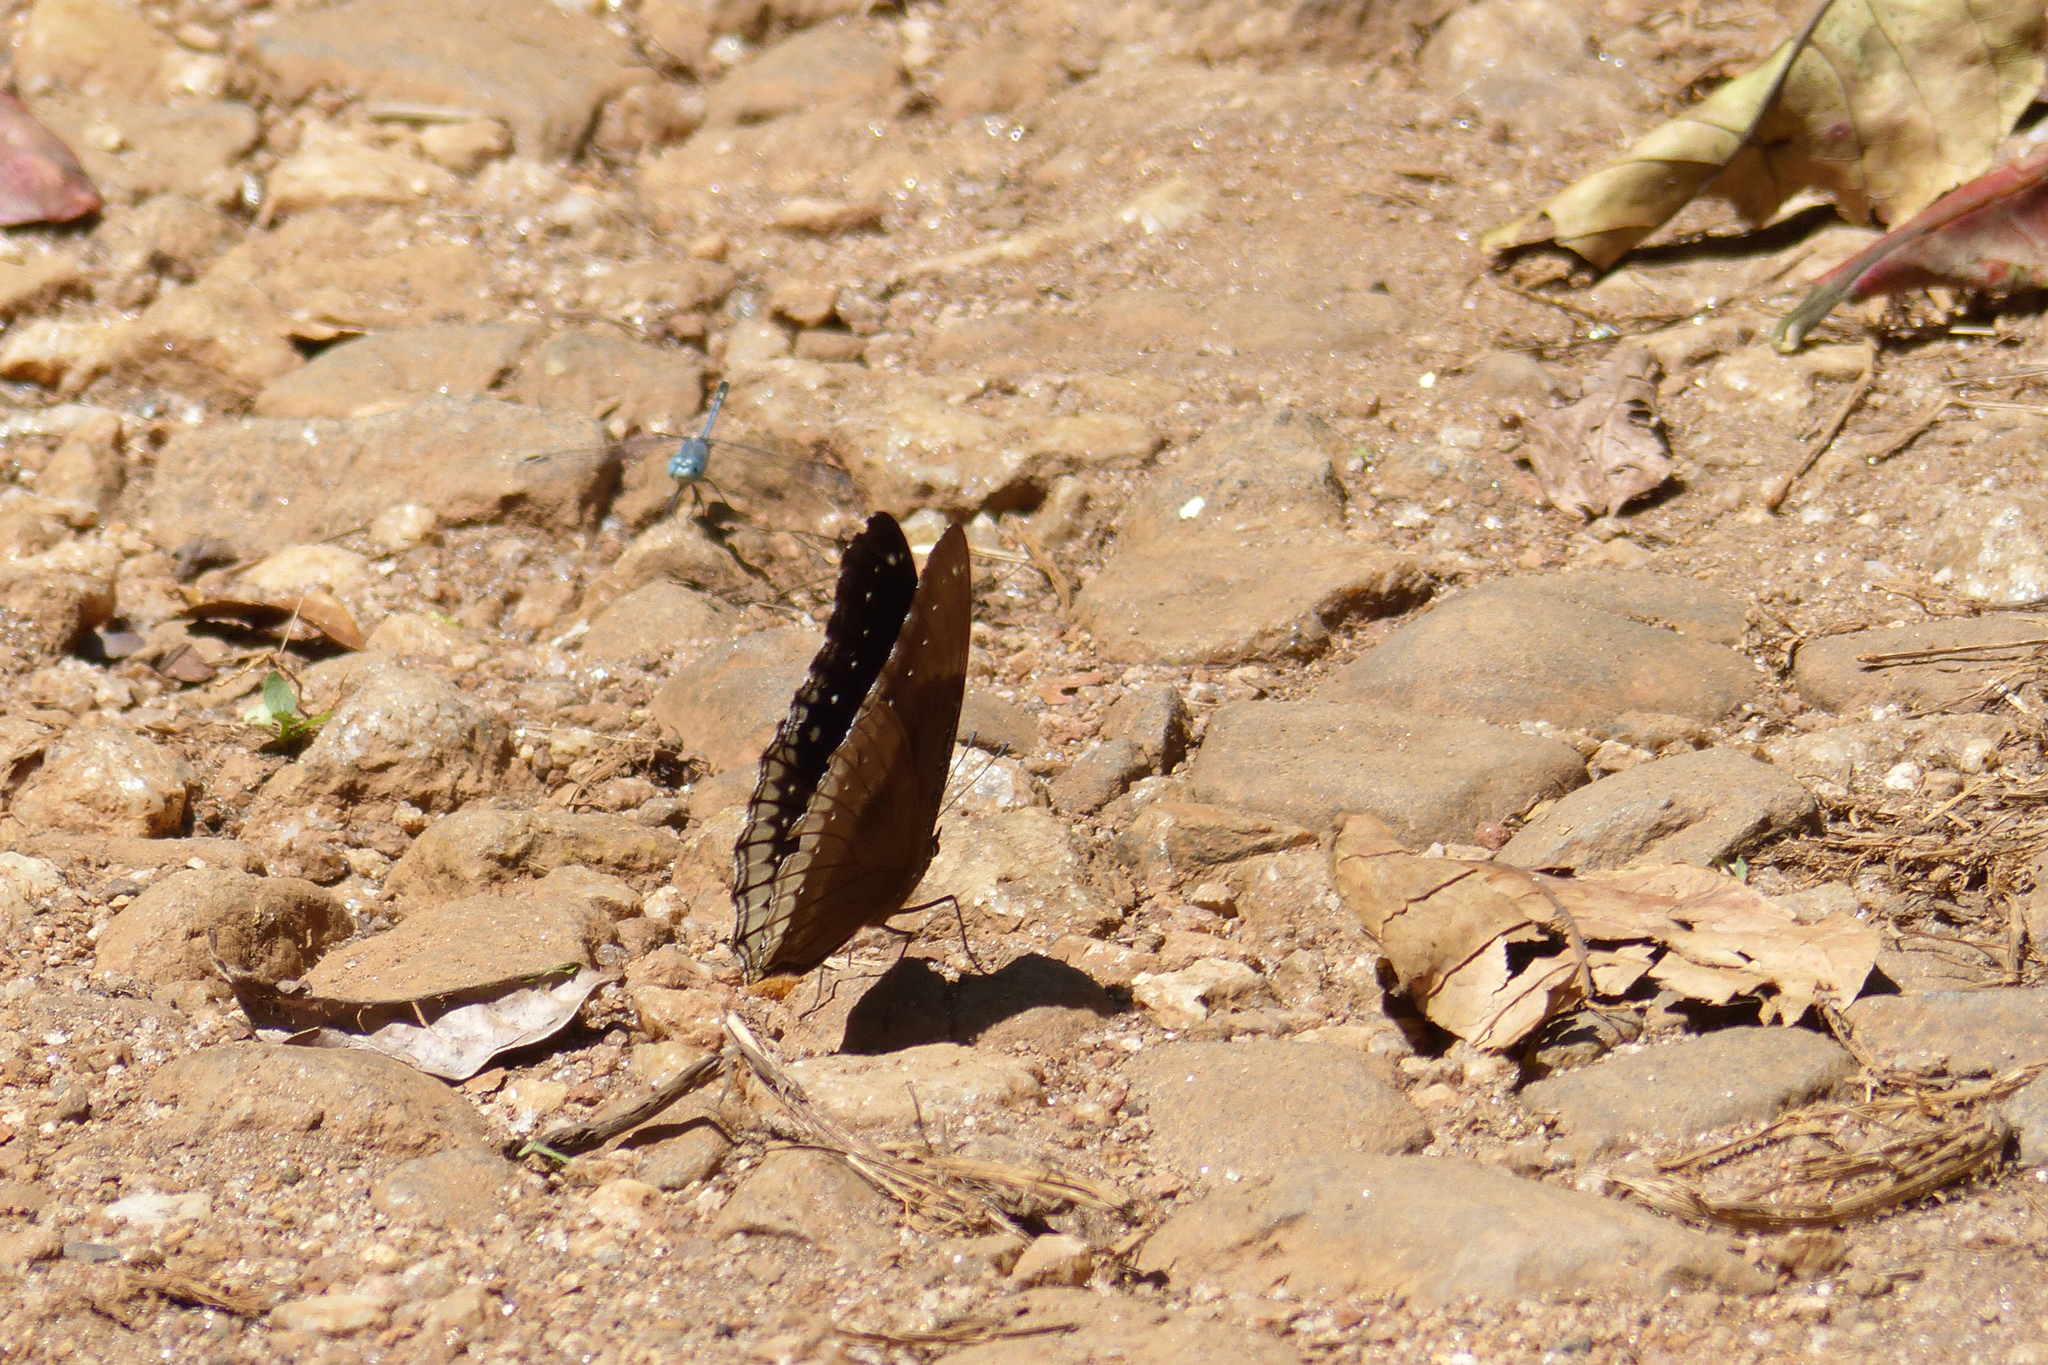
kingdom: Animalia
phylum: Arthropoda
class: Insecta
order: Lepidoptera
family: Nymphalidae
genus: Hypolimnas
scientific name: Hypolimnas bolina
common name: Great eggfly
